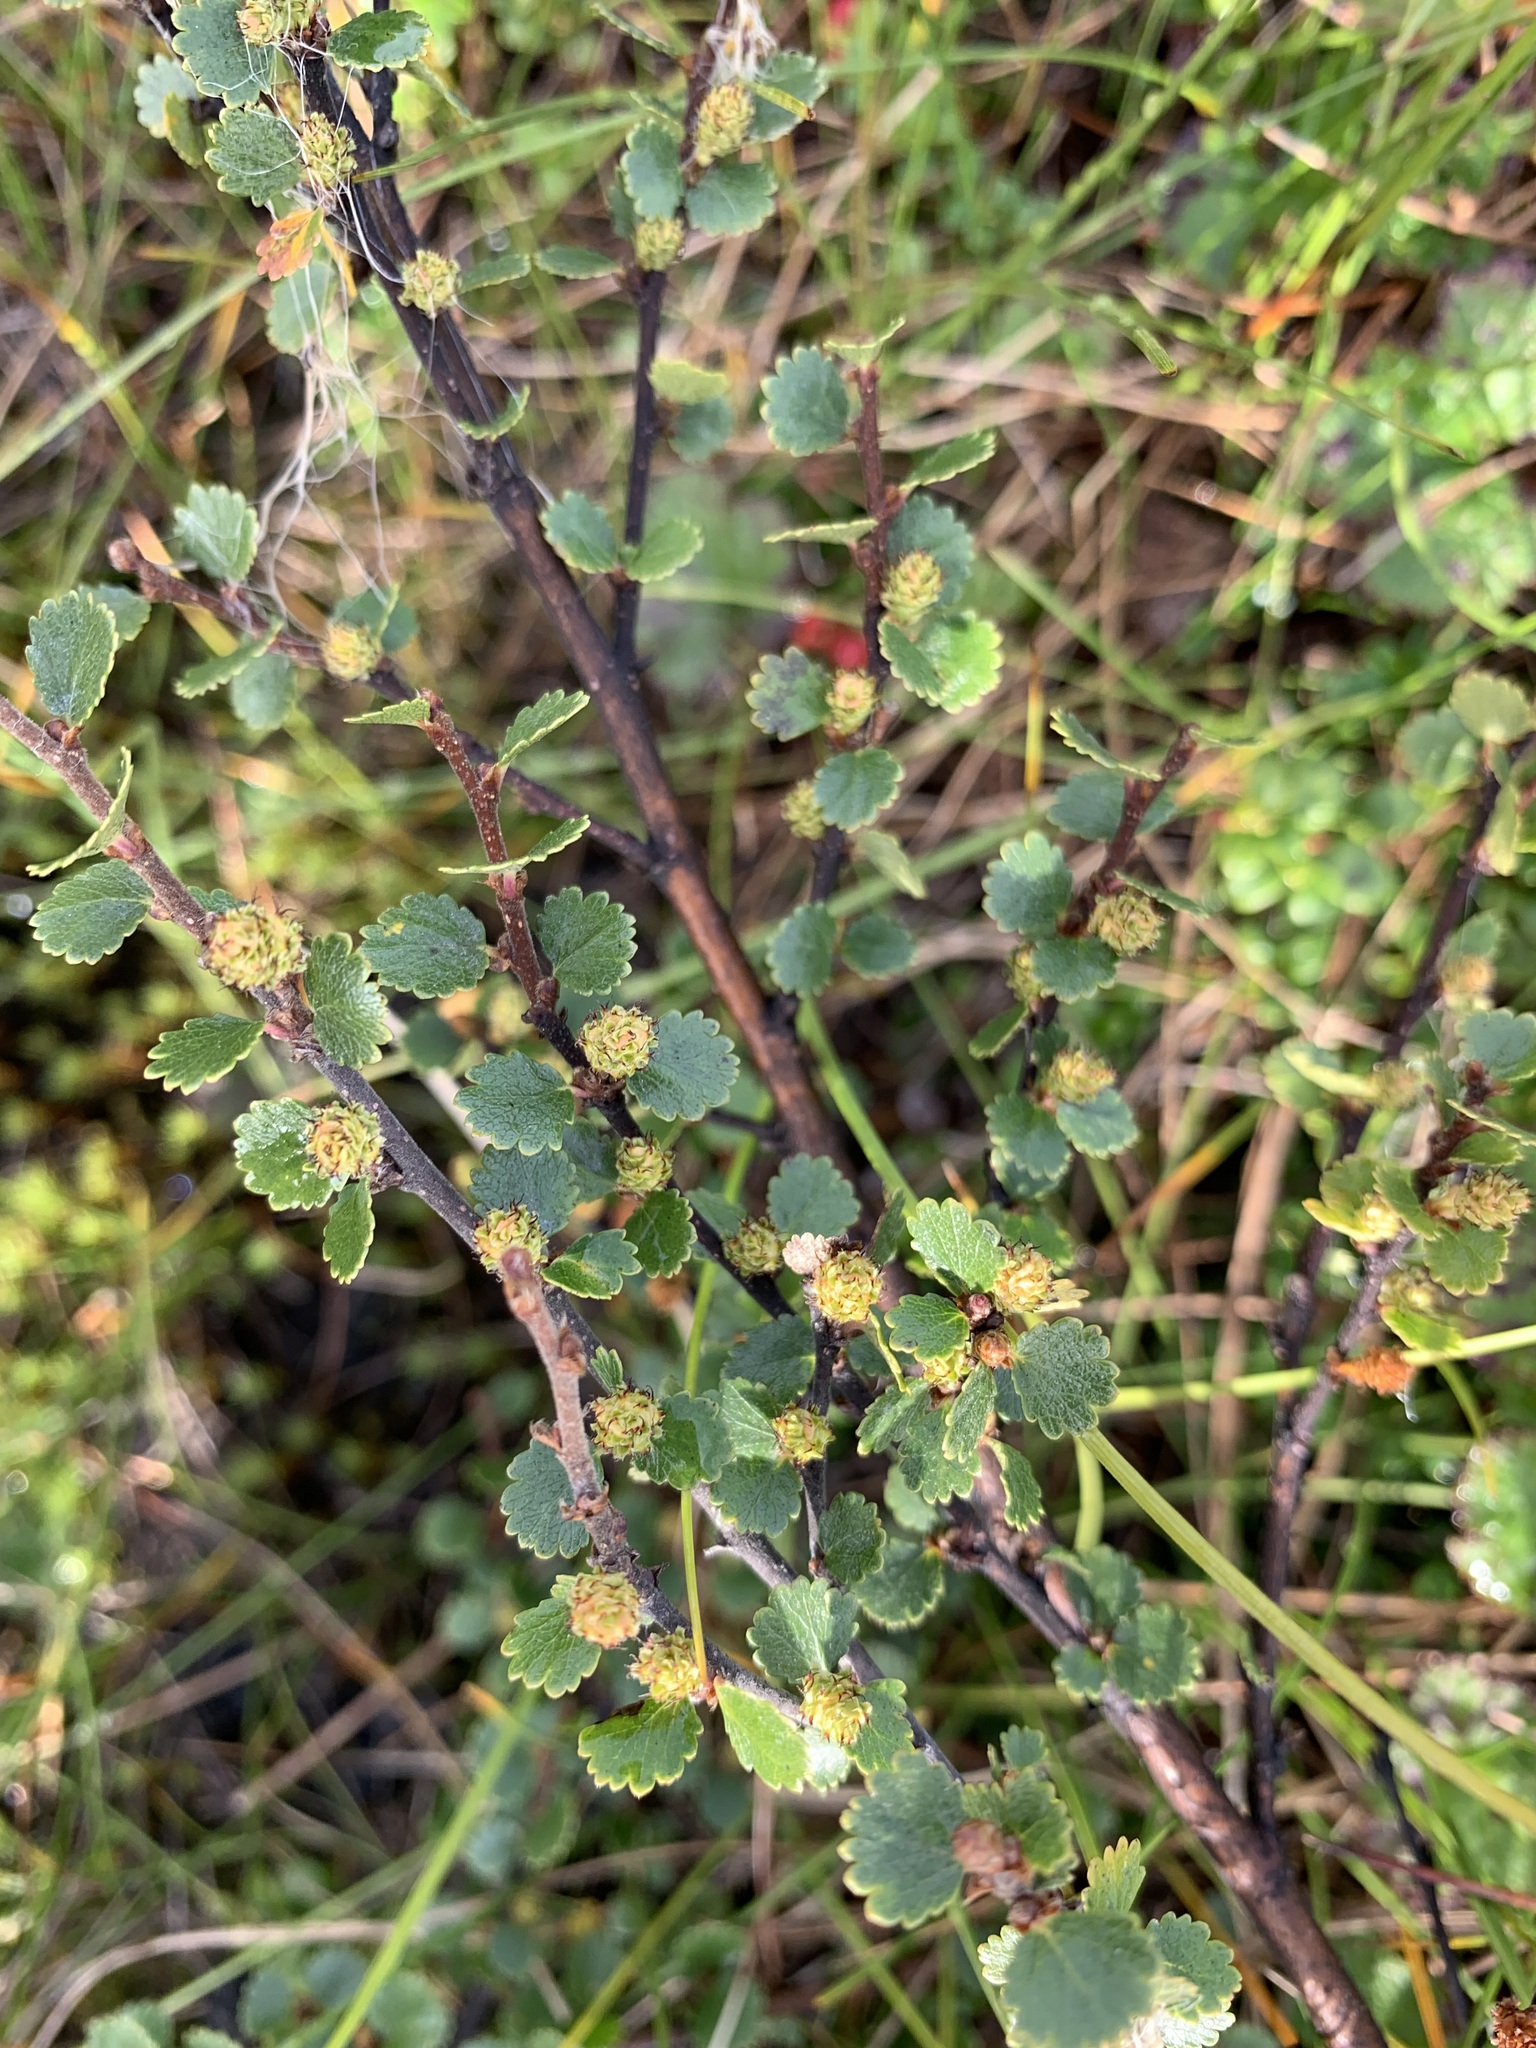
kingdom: Plantae
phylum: Tracheophyta
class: Magnoliopsida
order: Fagales
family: Betulaceae
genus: Betula
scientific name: Betula nana
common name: Arctic dwarf birch
